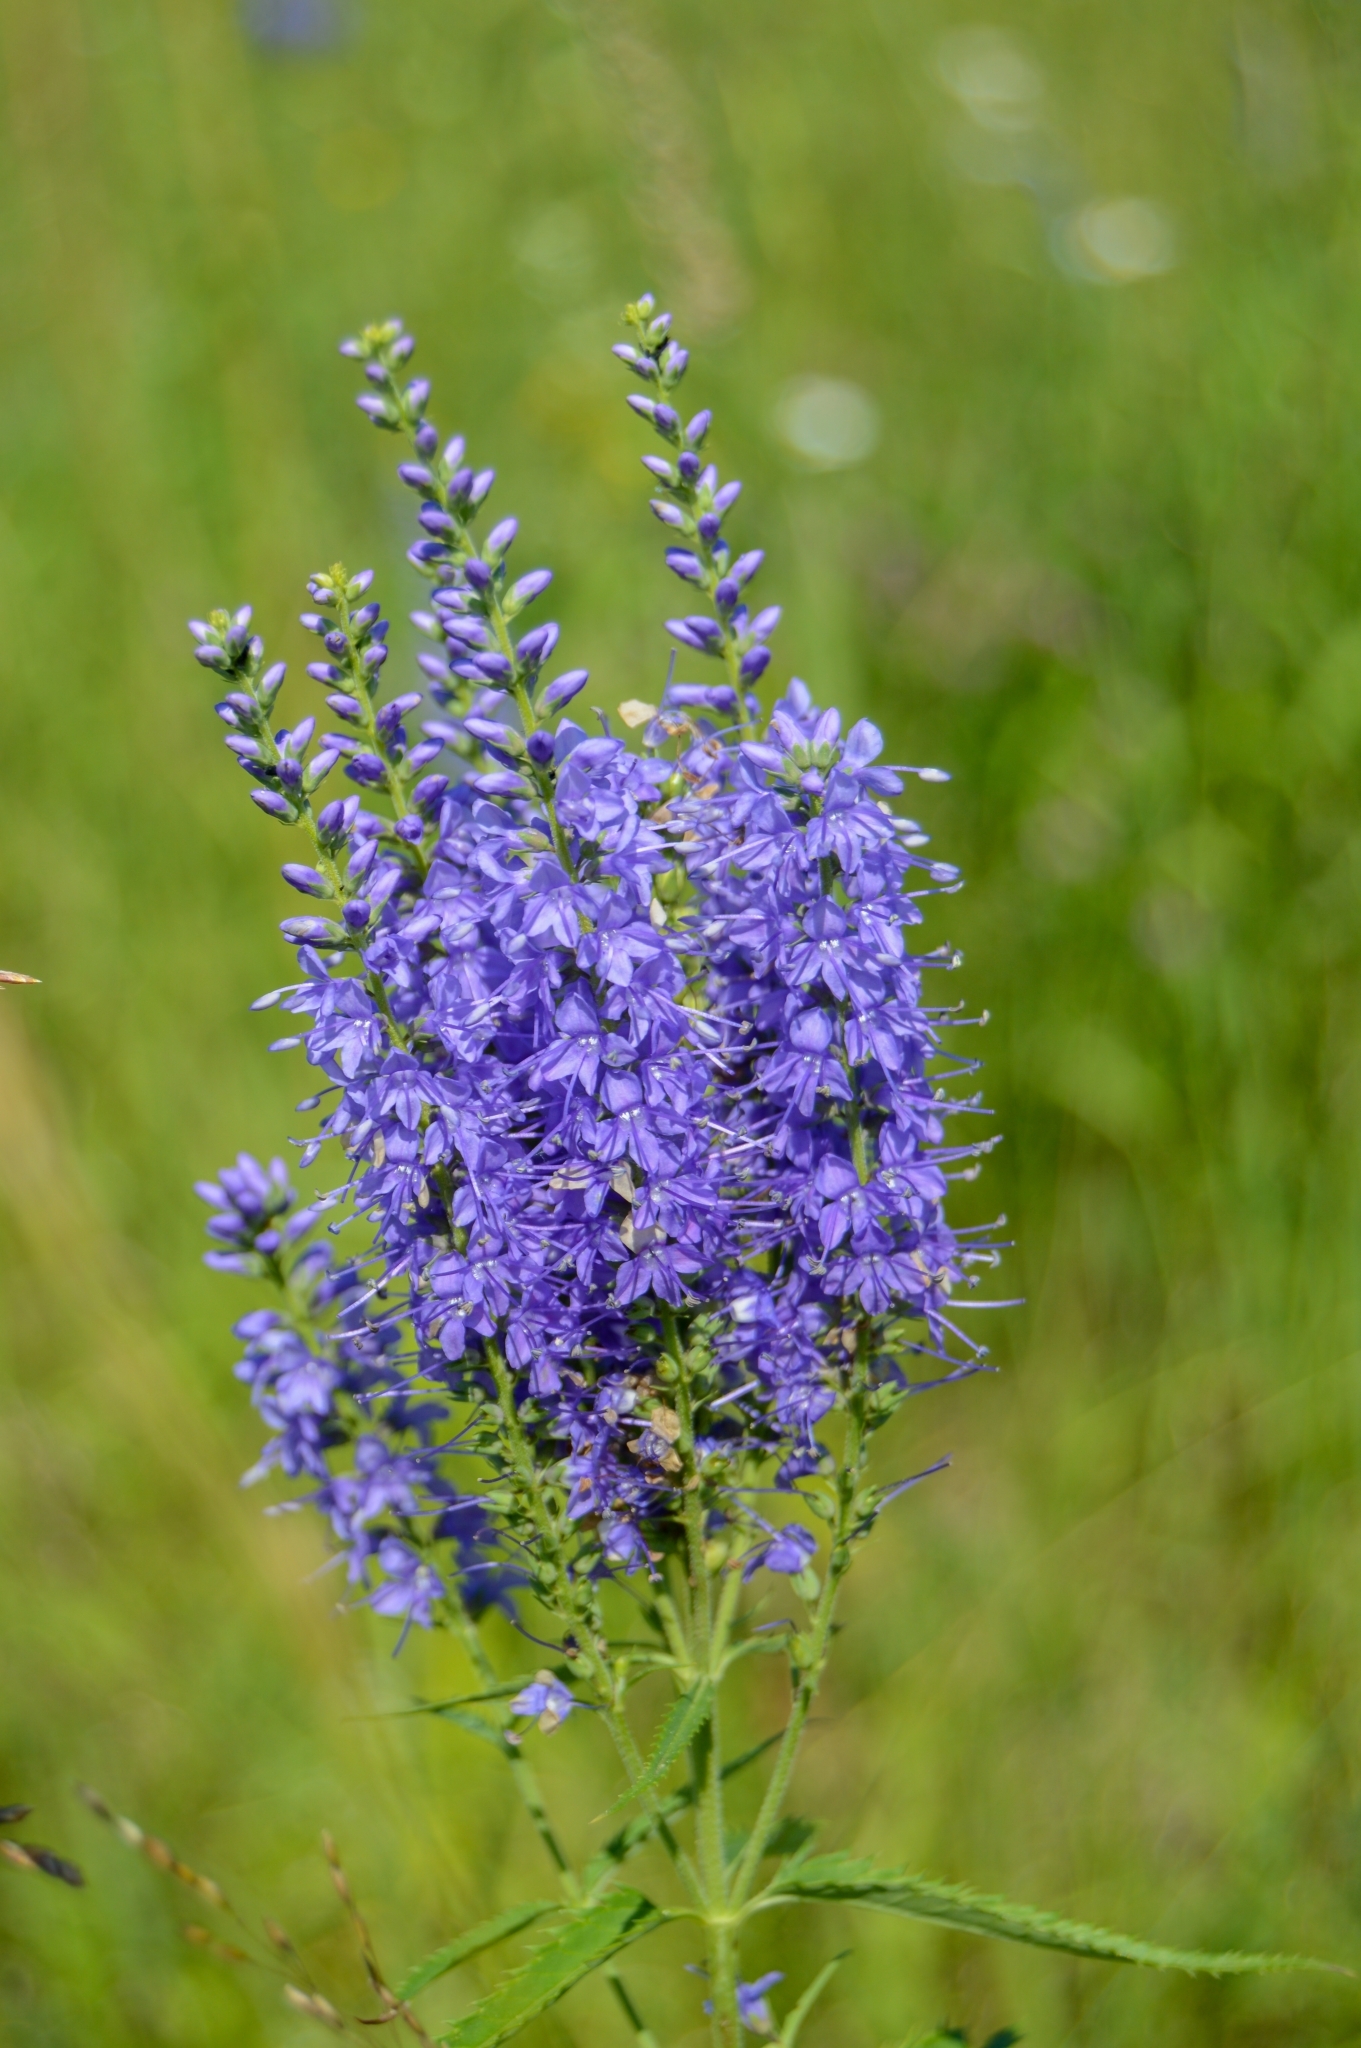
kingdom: Plantae
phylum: Tracheophyta
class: Magnoliopsida
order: Lamiales
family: Plantaginaceae
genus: Veronica
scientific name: Veronica longifolia
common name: Garden speedwell
